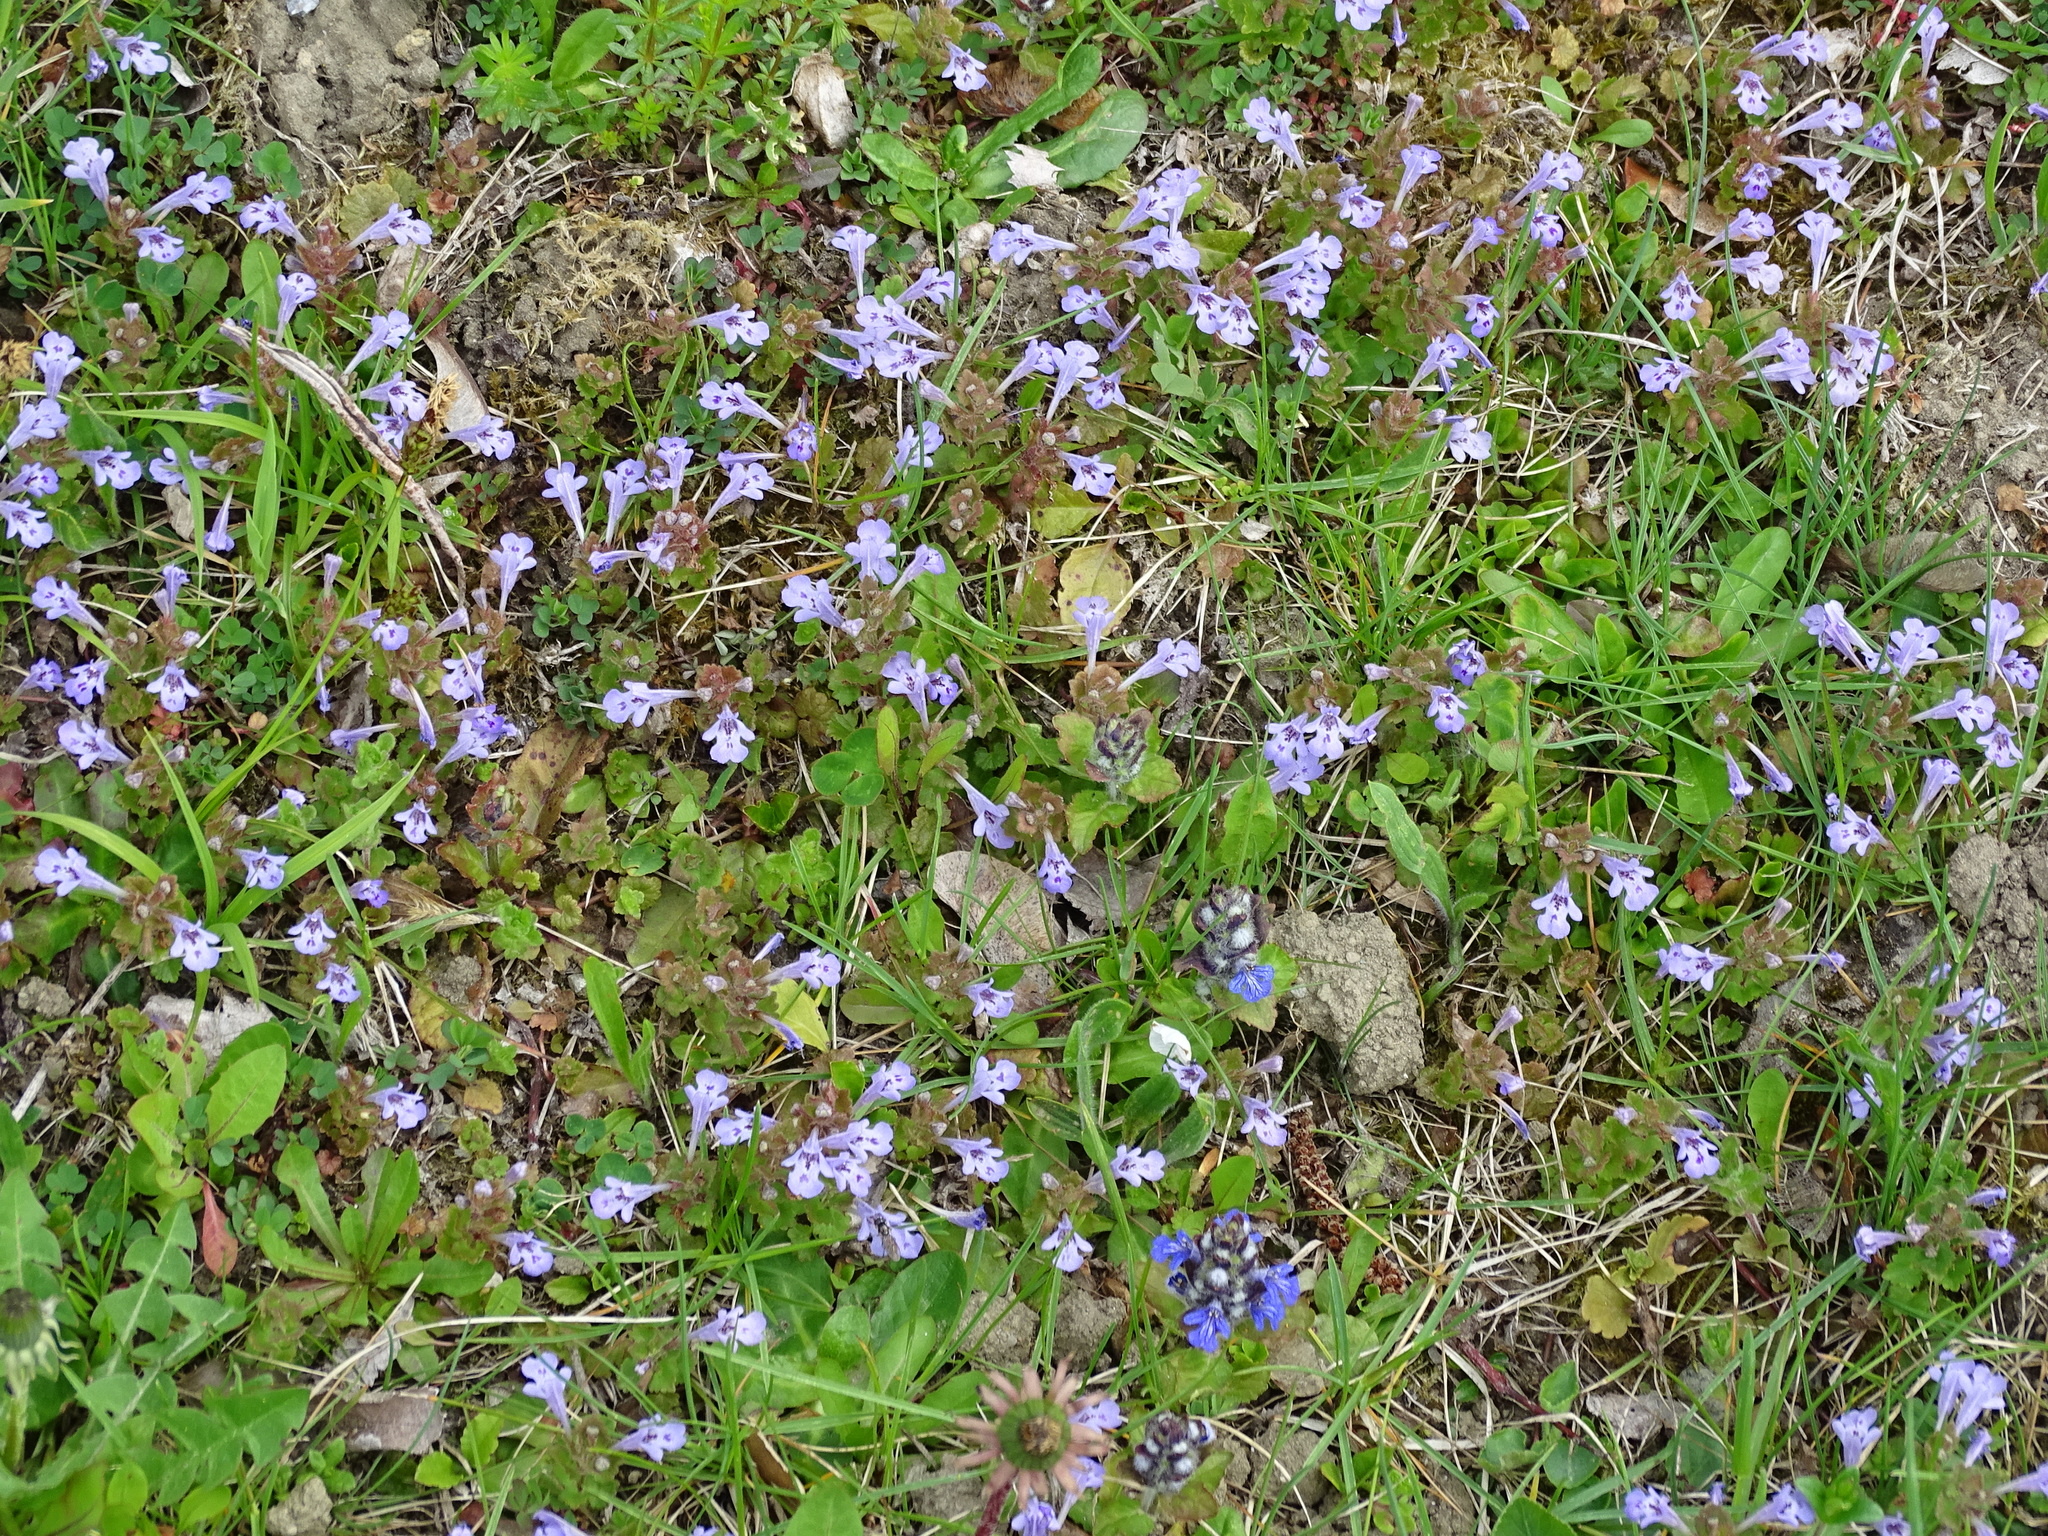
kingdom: Plantae
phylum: Tracheophyta
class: Magnoliopsida
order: Lamiales
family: Lamiaceae
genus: Glechoma
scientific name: Glechoma hederacea
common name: Ground ivy
